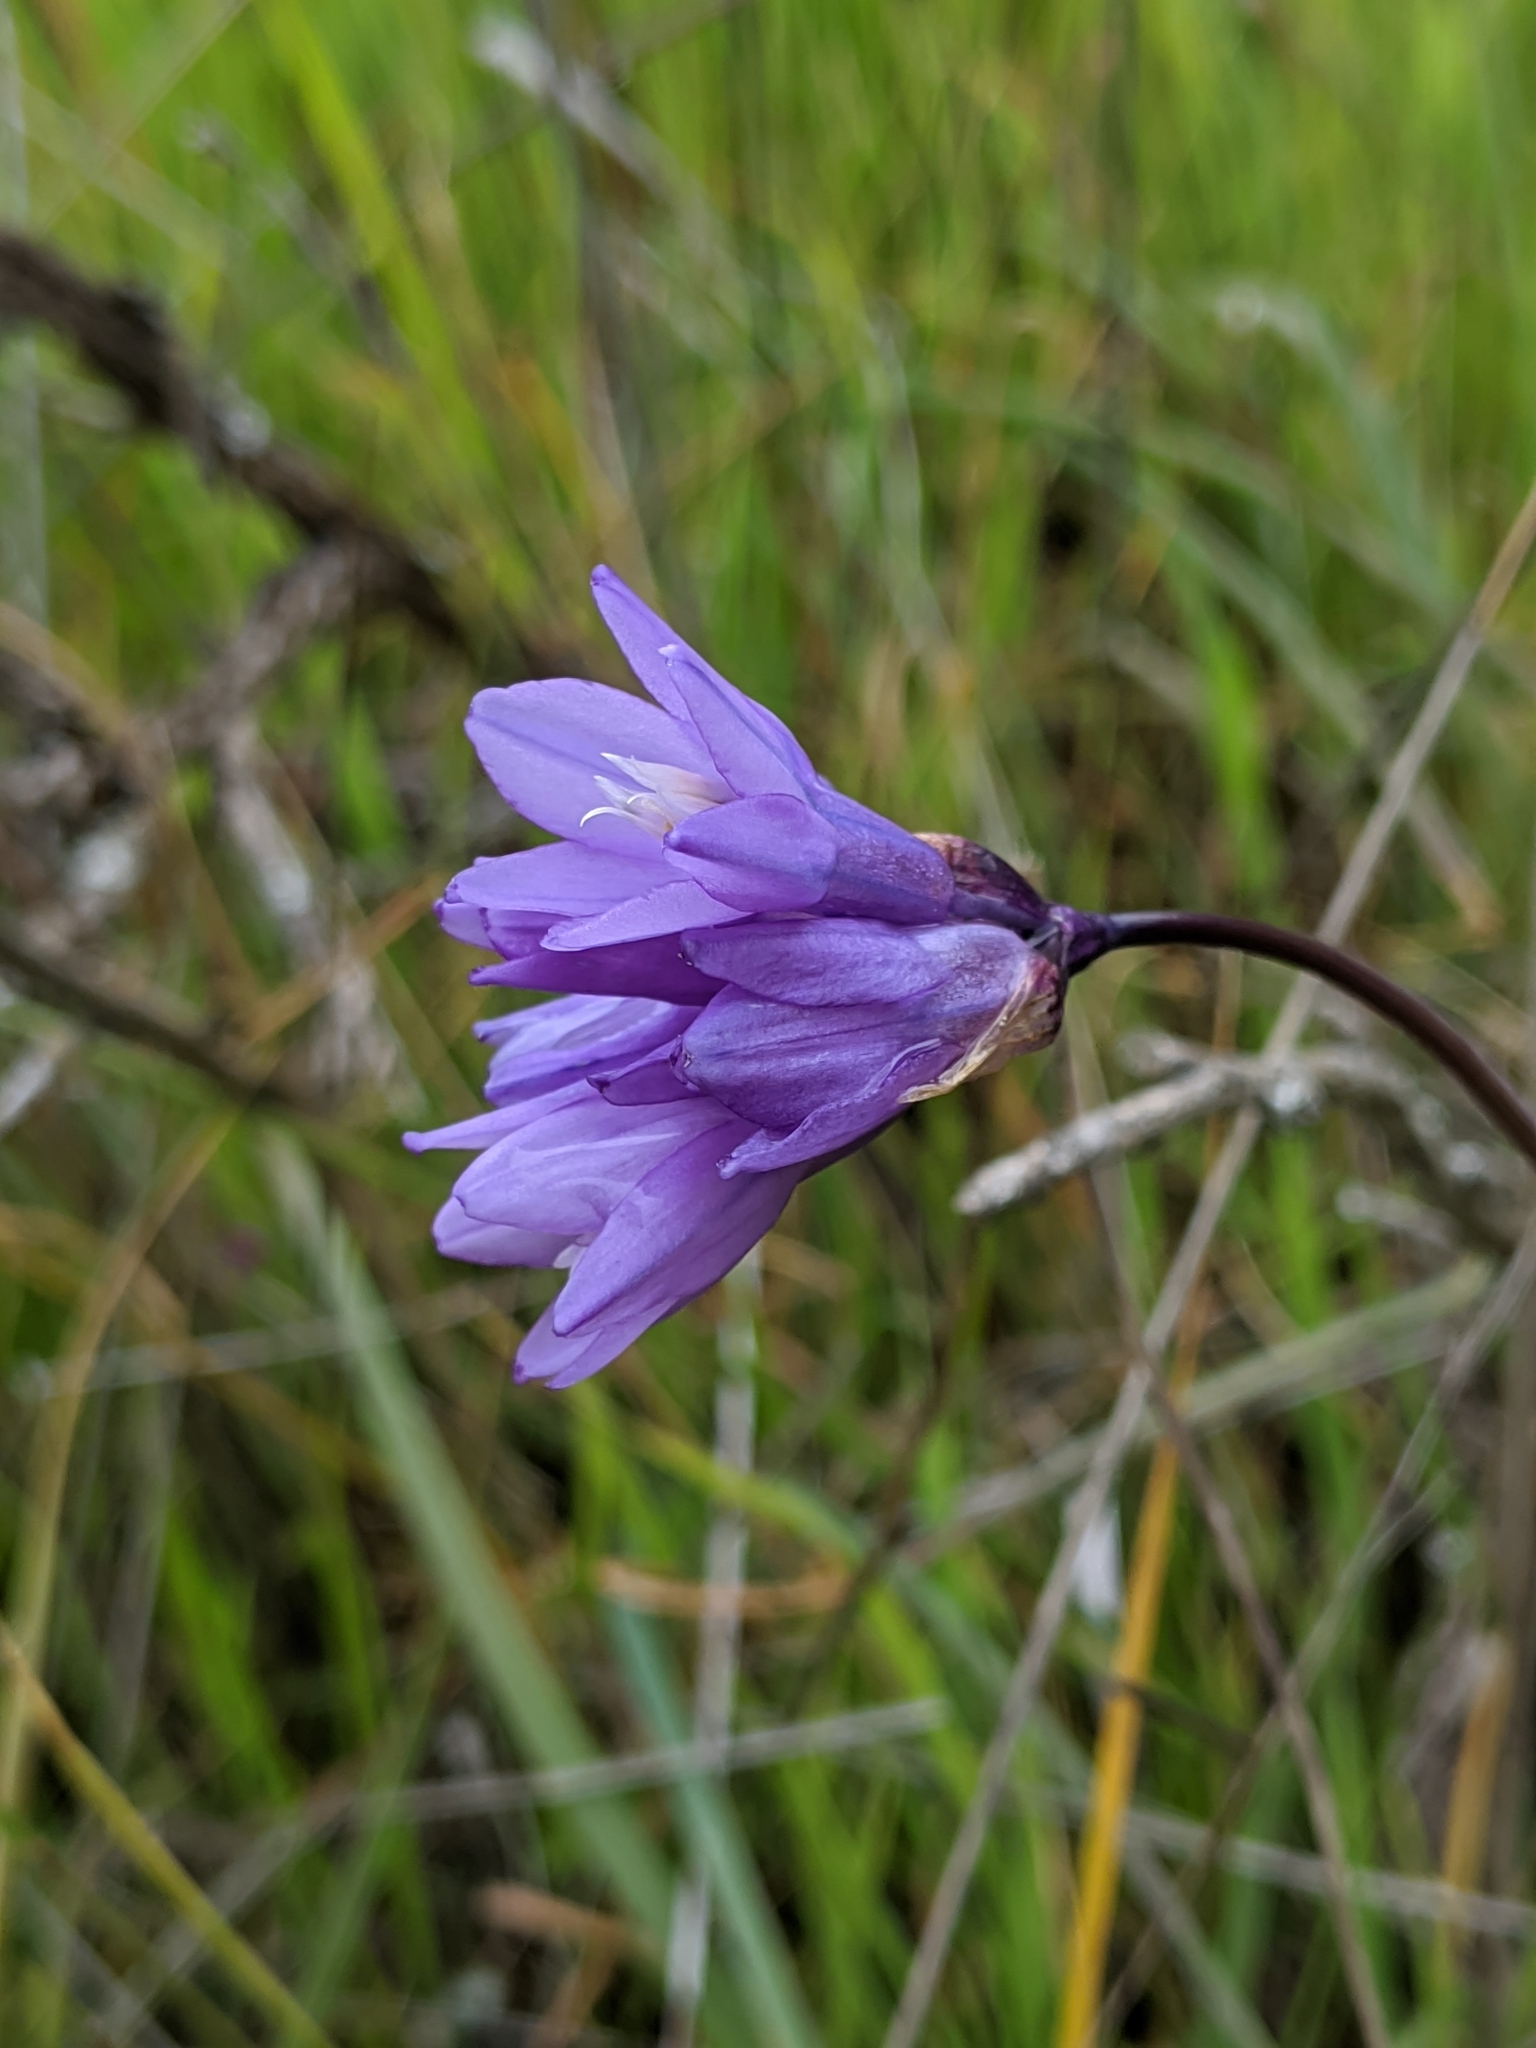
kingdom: Plantae
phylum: Tracheophyta
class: Liliopsida
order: Asparagales
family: Asparagaceae
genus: Dipterostemon
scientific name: Dipterostemon capitatus
